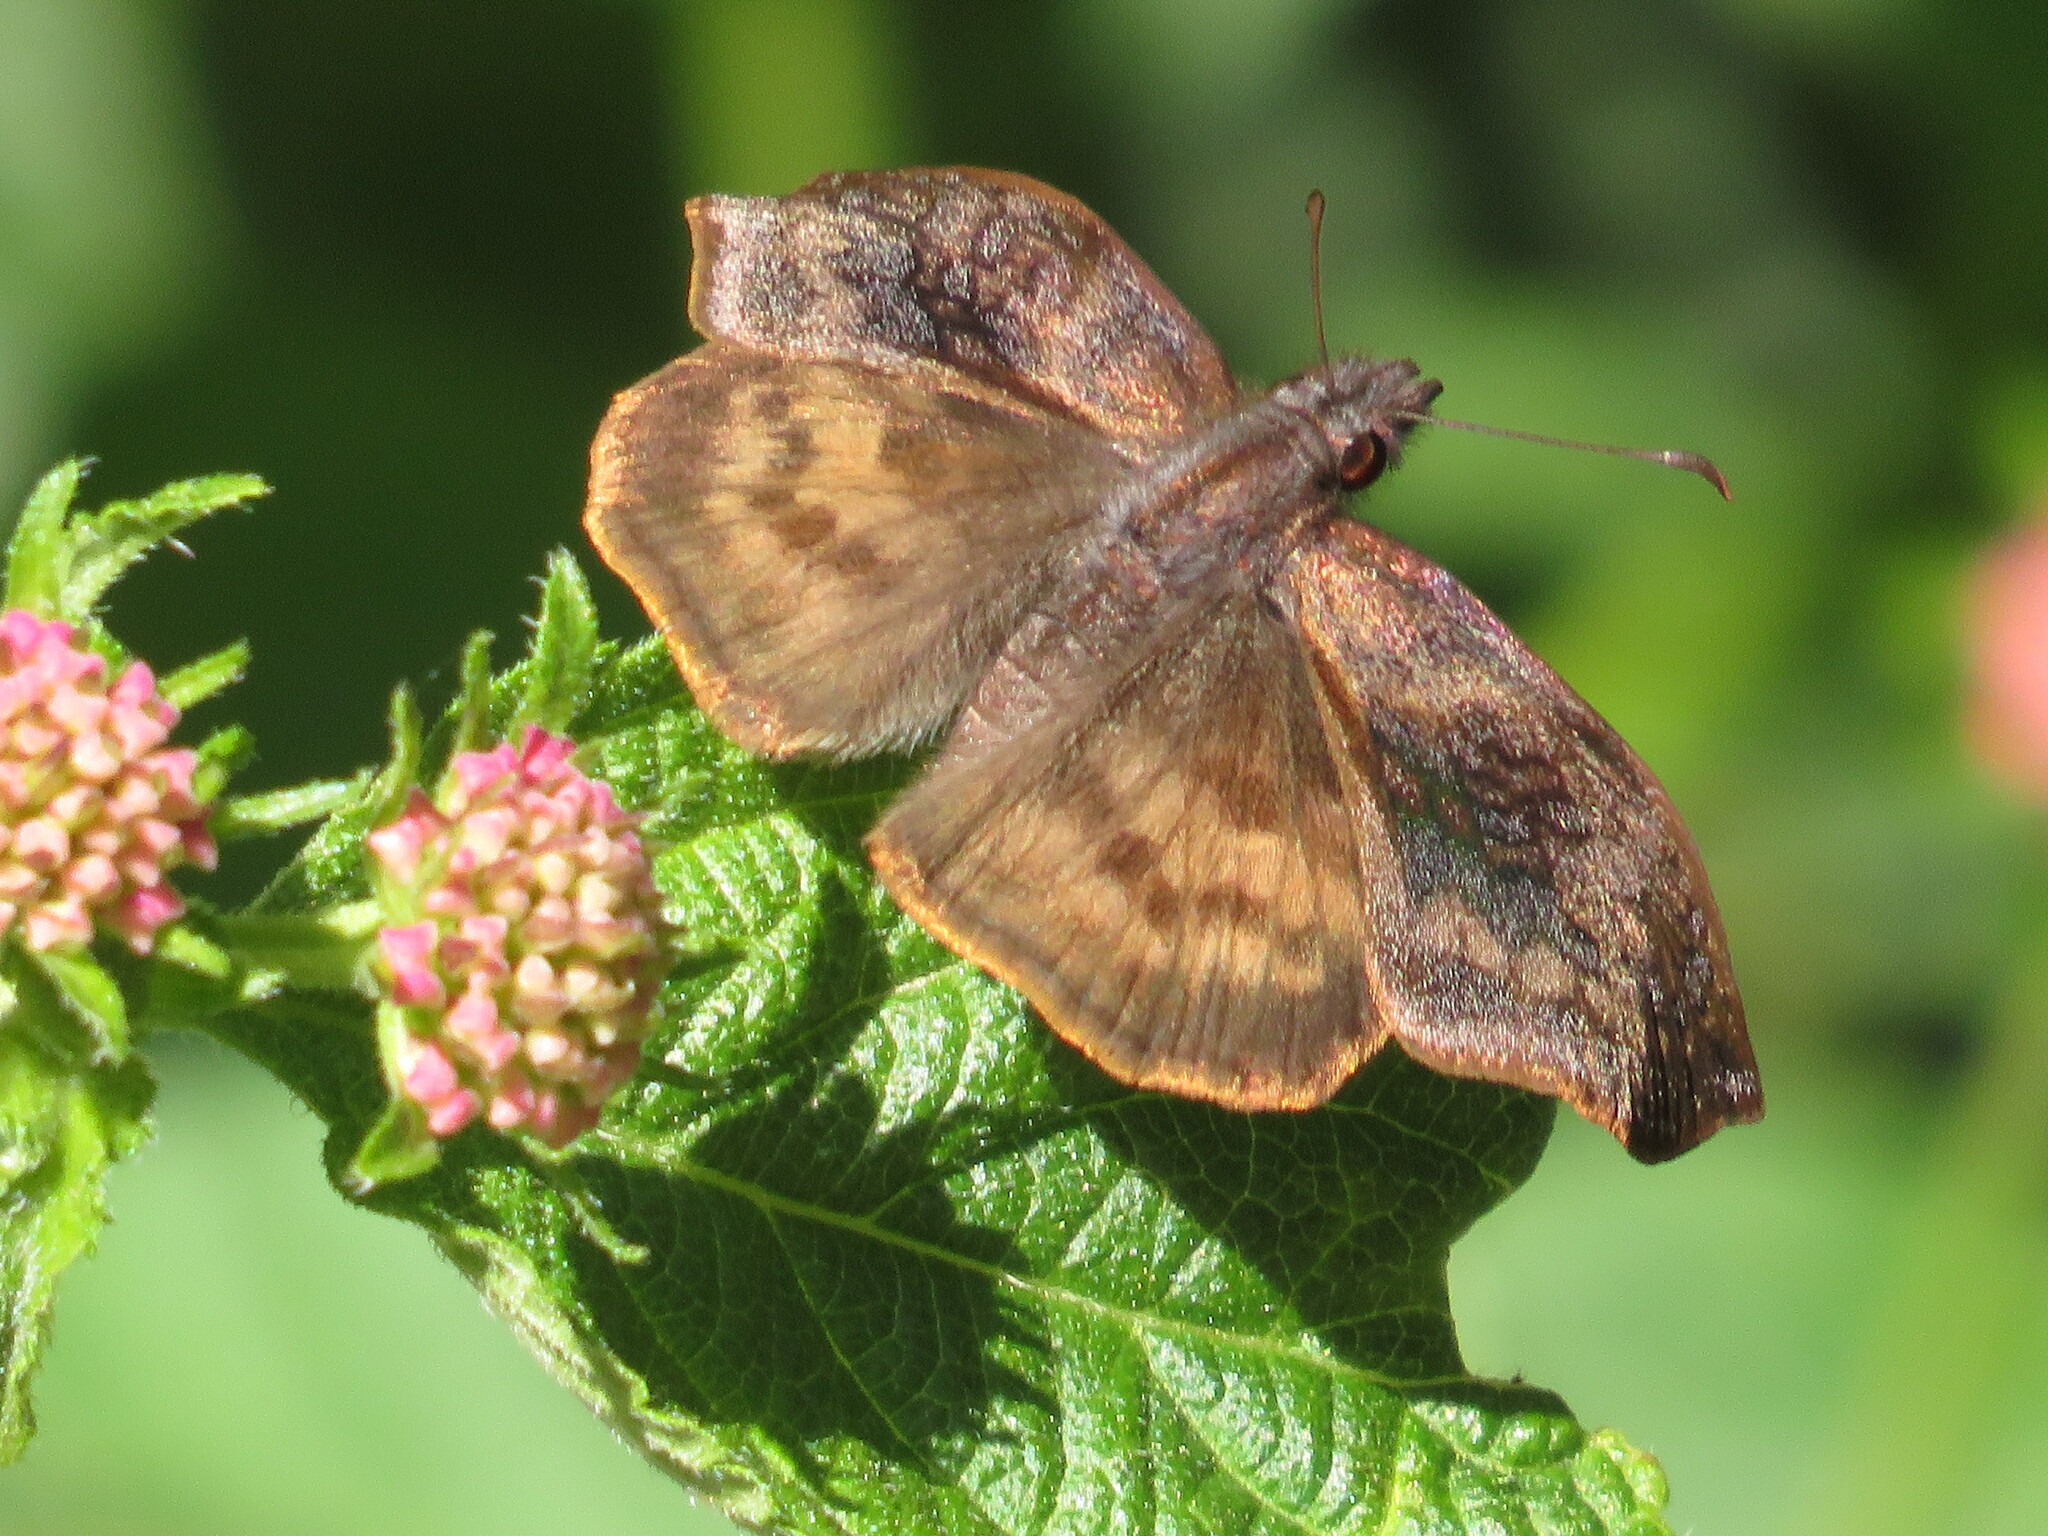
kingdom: Animalia
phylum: Arthropoda
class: Insecta
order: Lepidoptera
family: Hesperiidae
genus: Theagenes
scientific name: Theagenes dichrous
